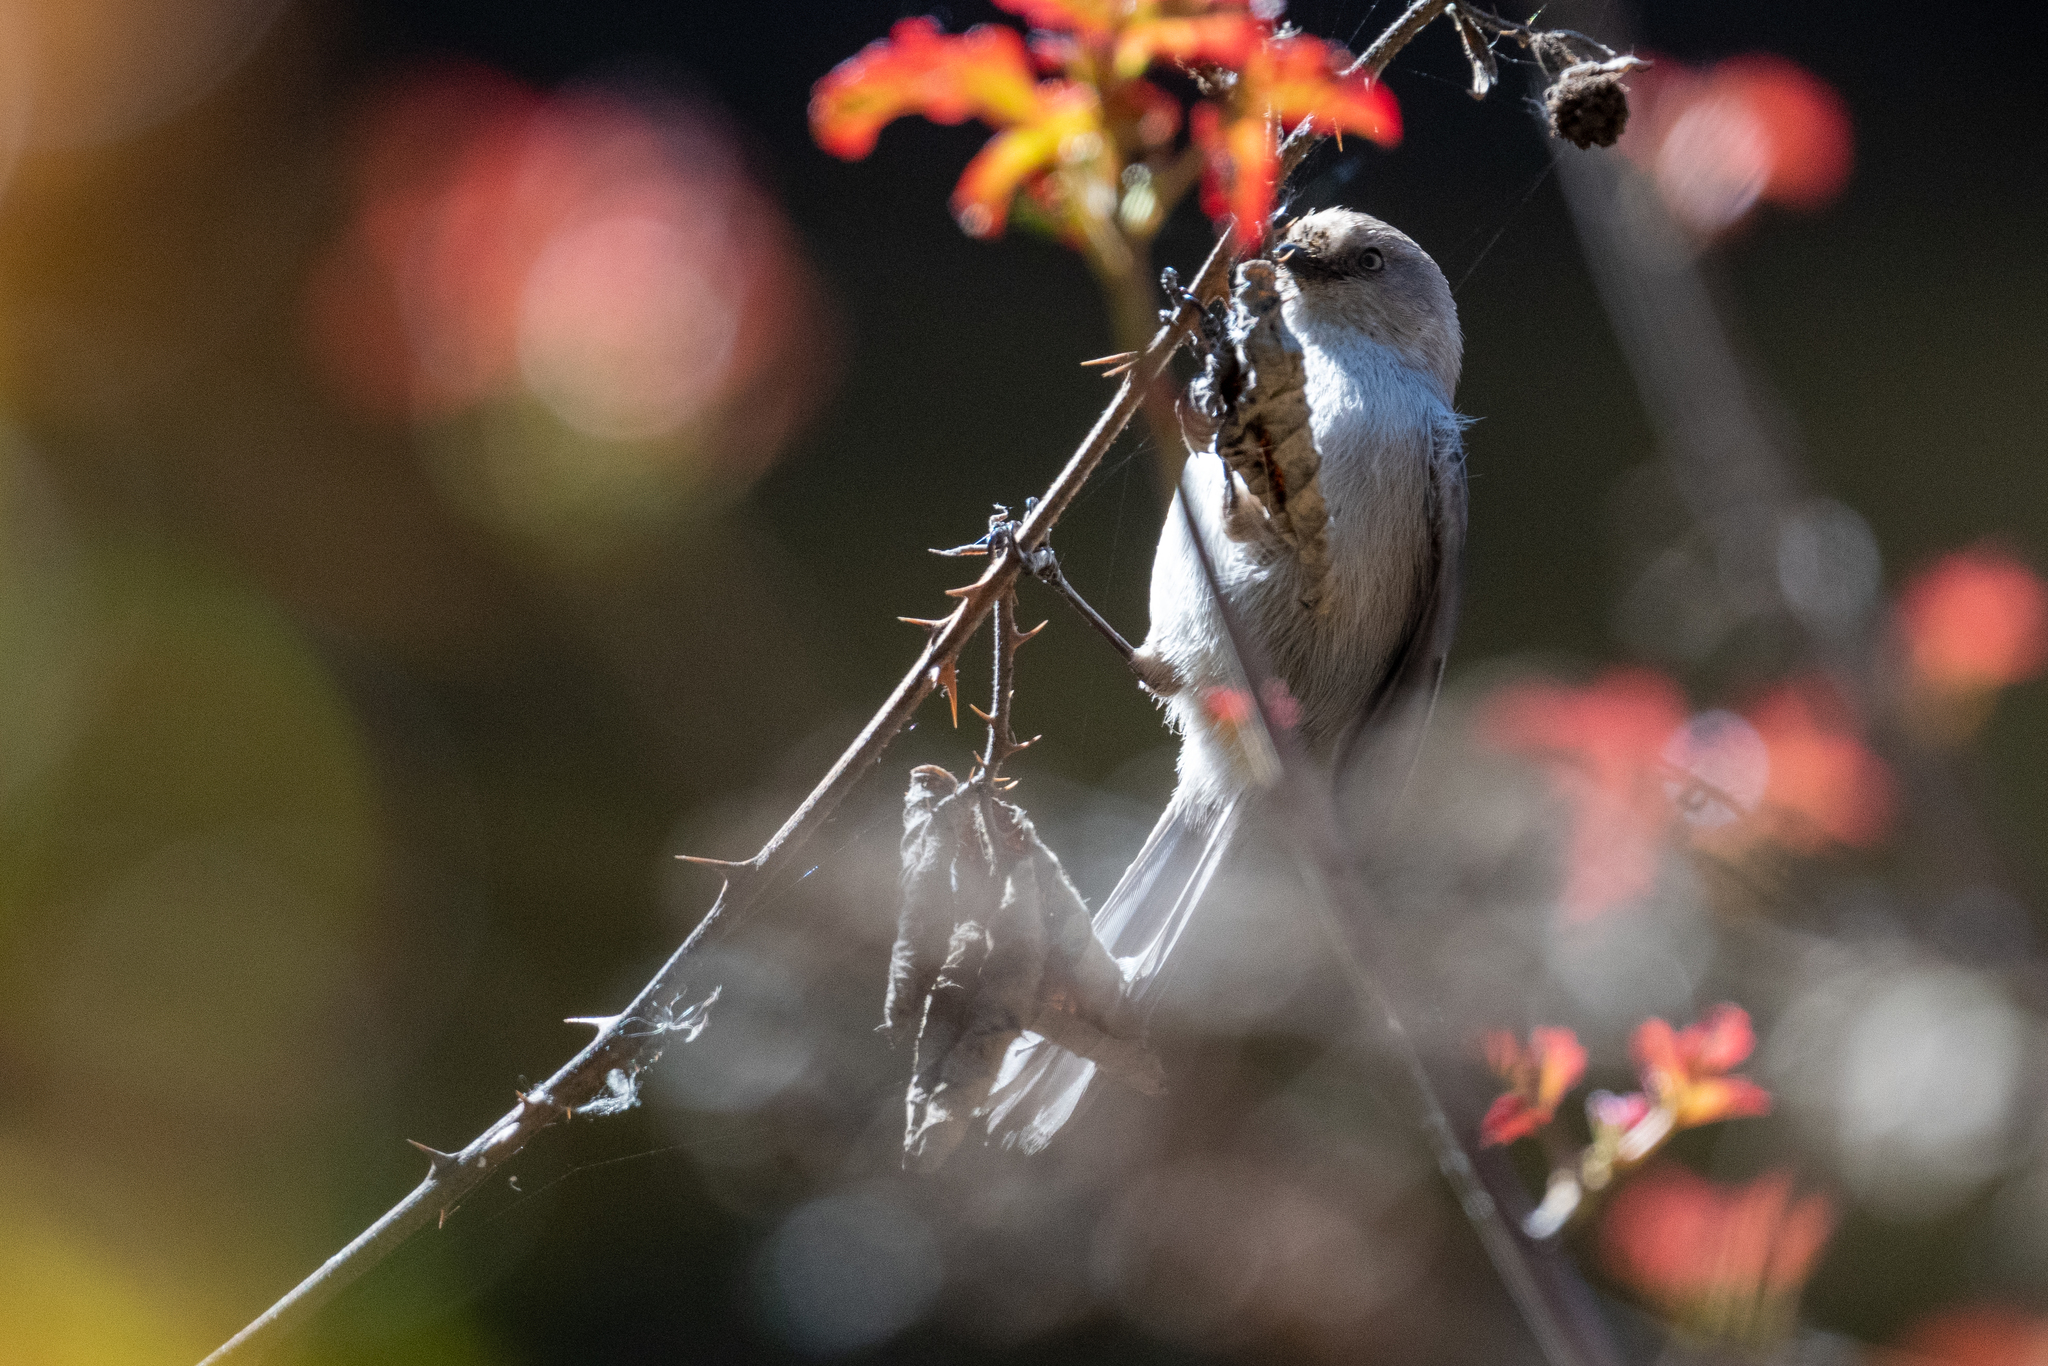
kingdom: Animalia
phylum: Chordata
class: Aves
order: Passeriformes
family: Aegithalidae
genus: Psaltriparus
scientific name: Psaltriparus minimus
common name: American bushtit
